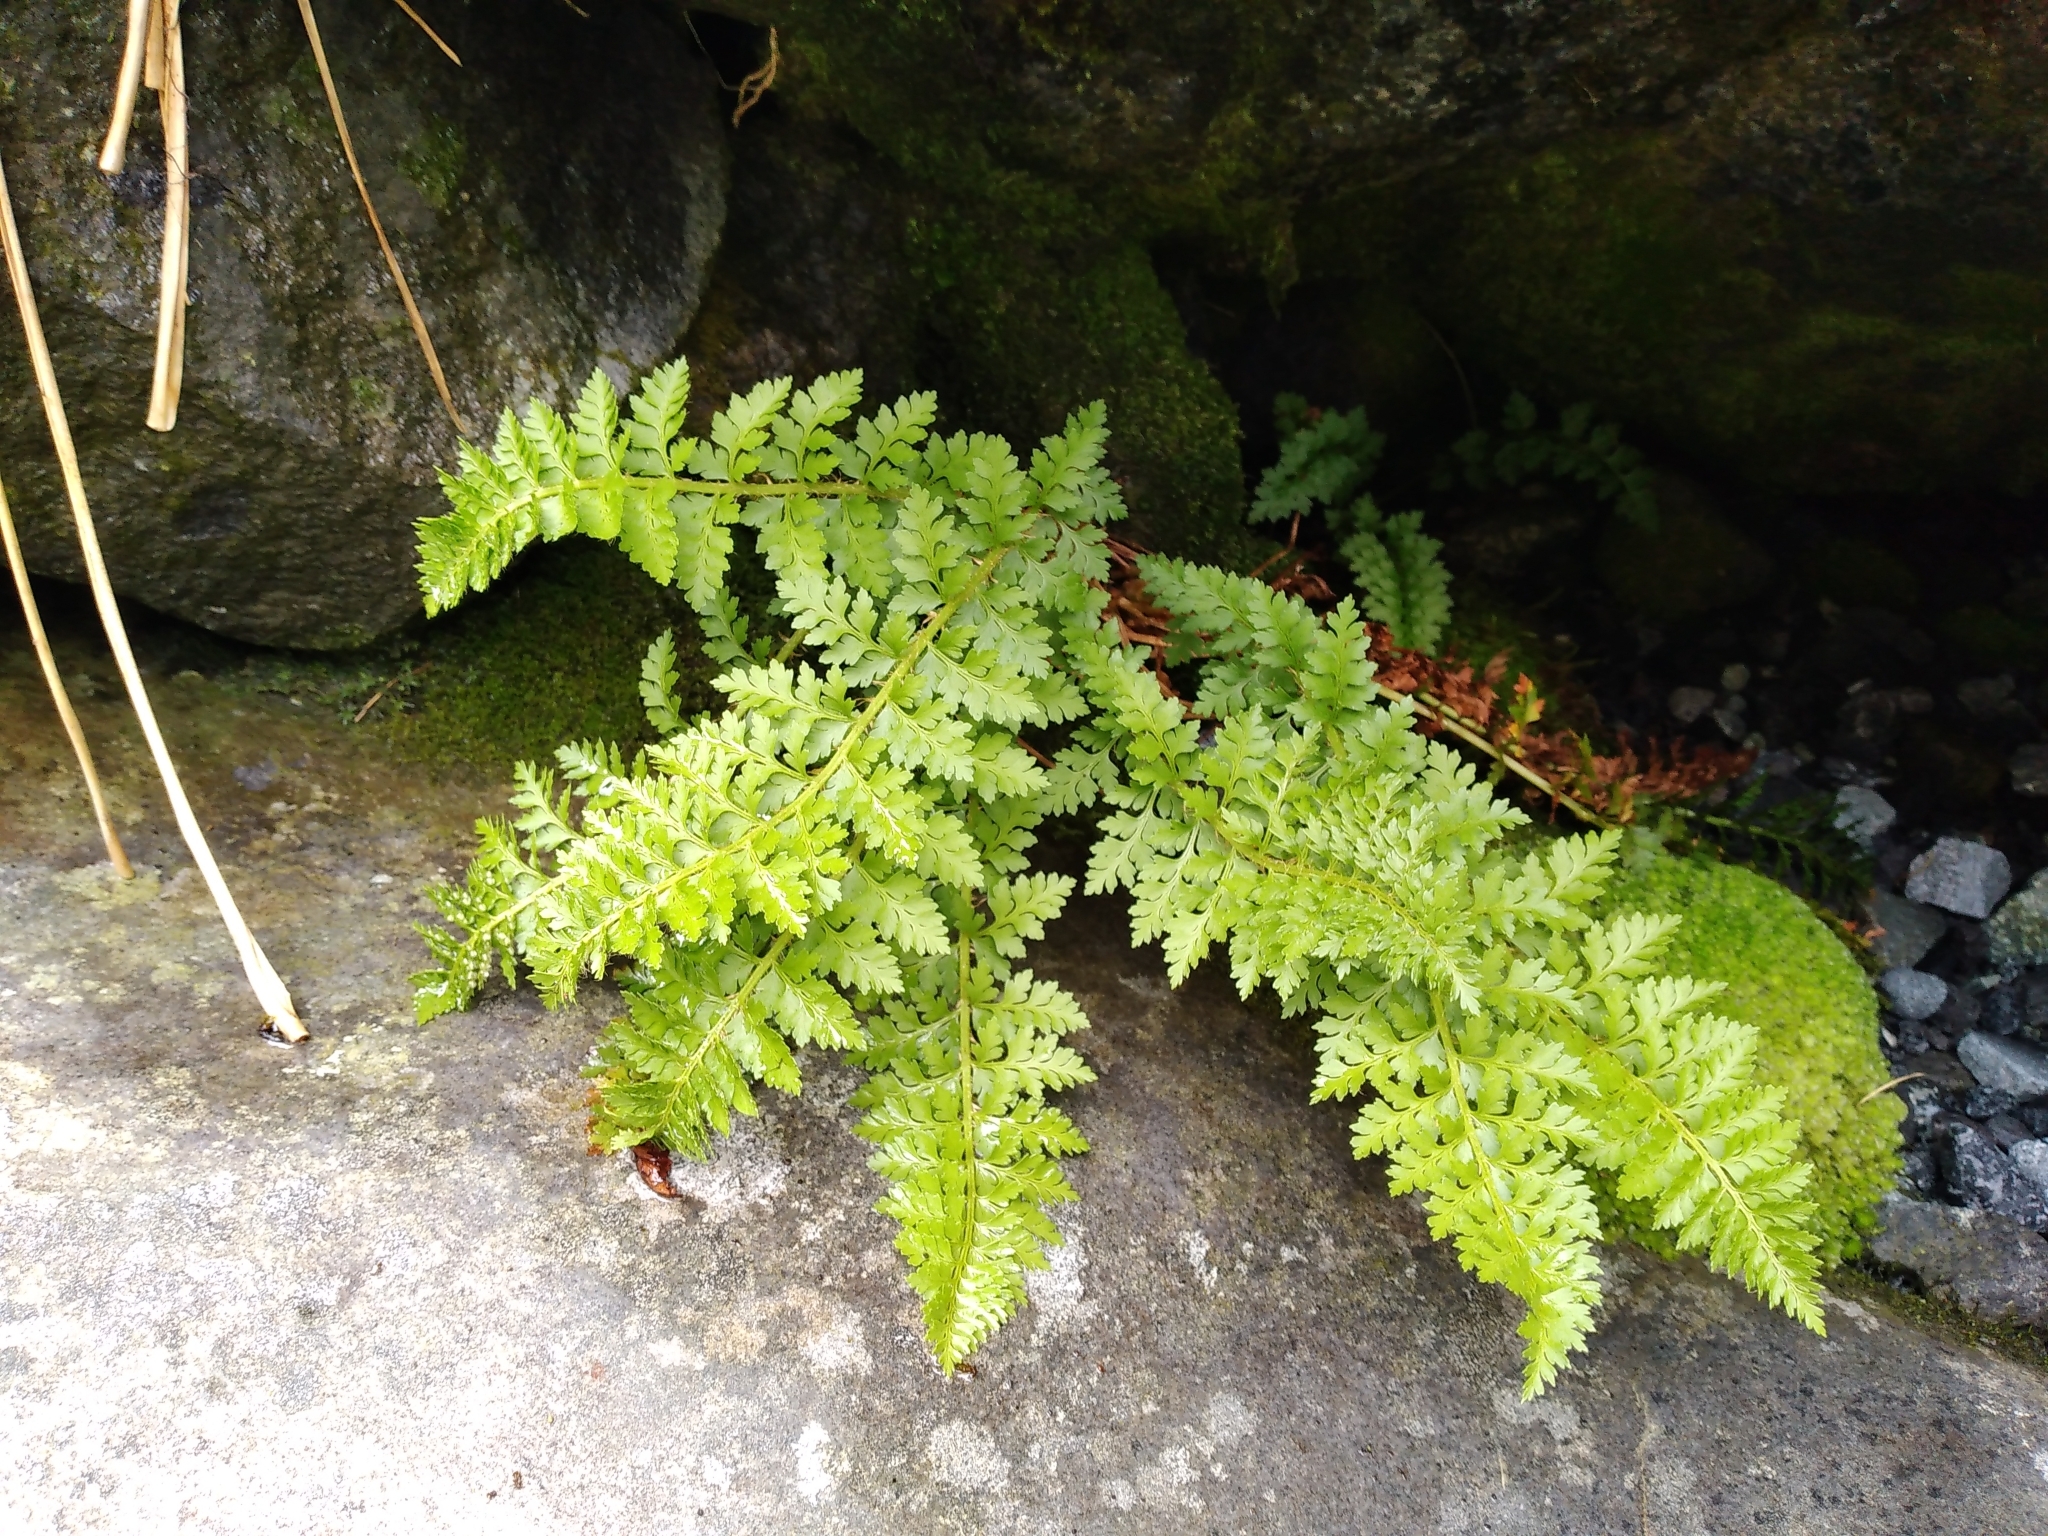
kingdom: Plantae
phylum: Tracheophyta
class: Polypodiopsida
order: Polypodiales
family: Dryopteridaceae
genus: Polystichum
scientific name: Polystichum cystostegia
